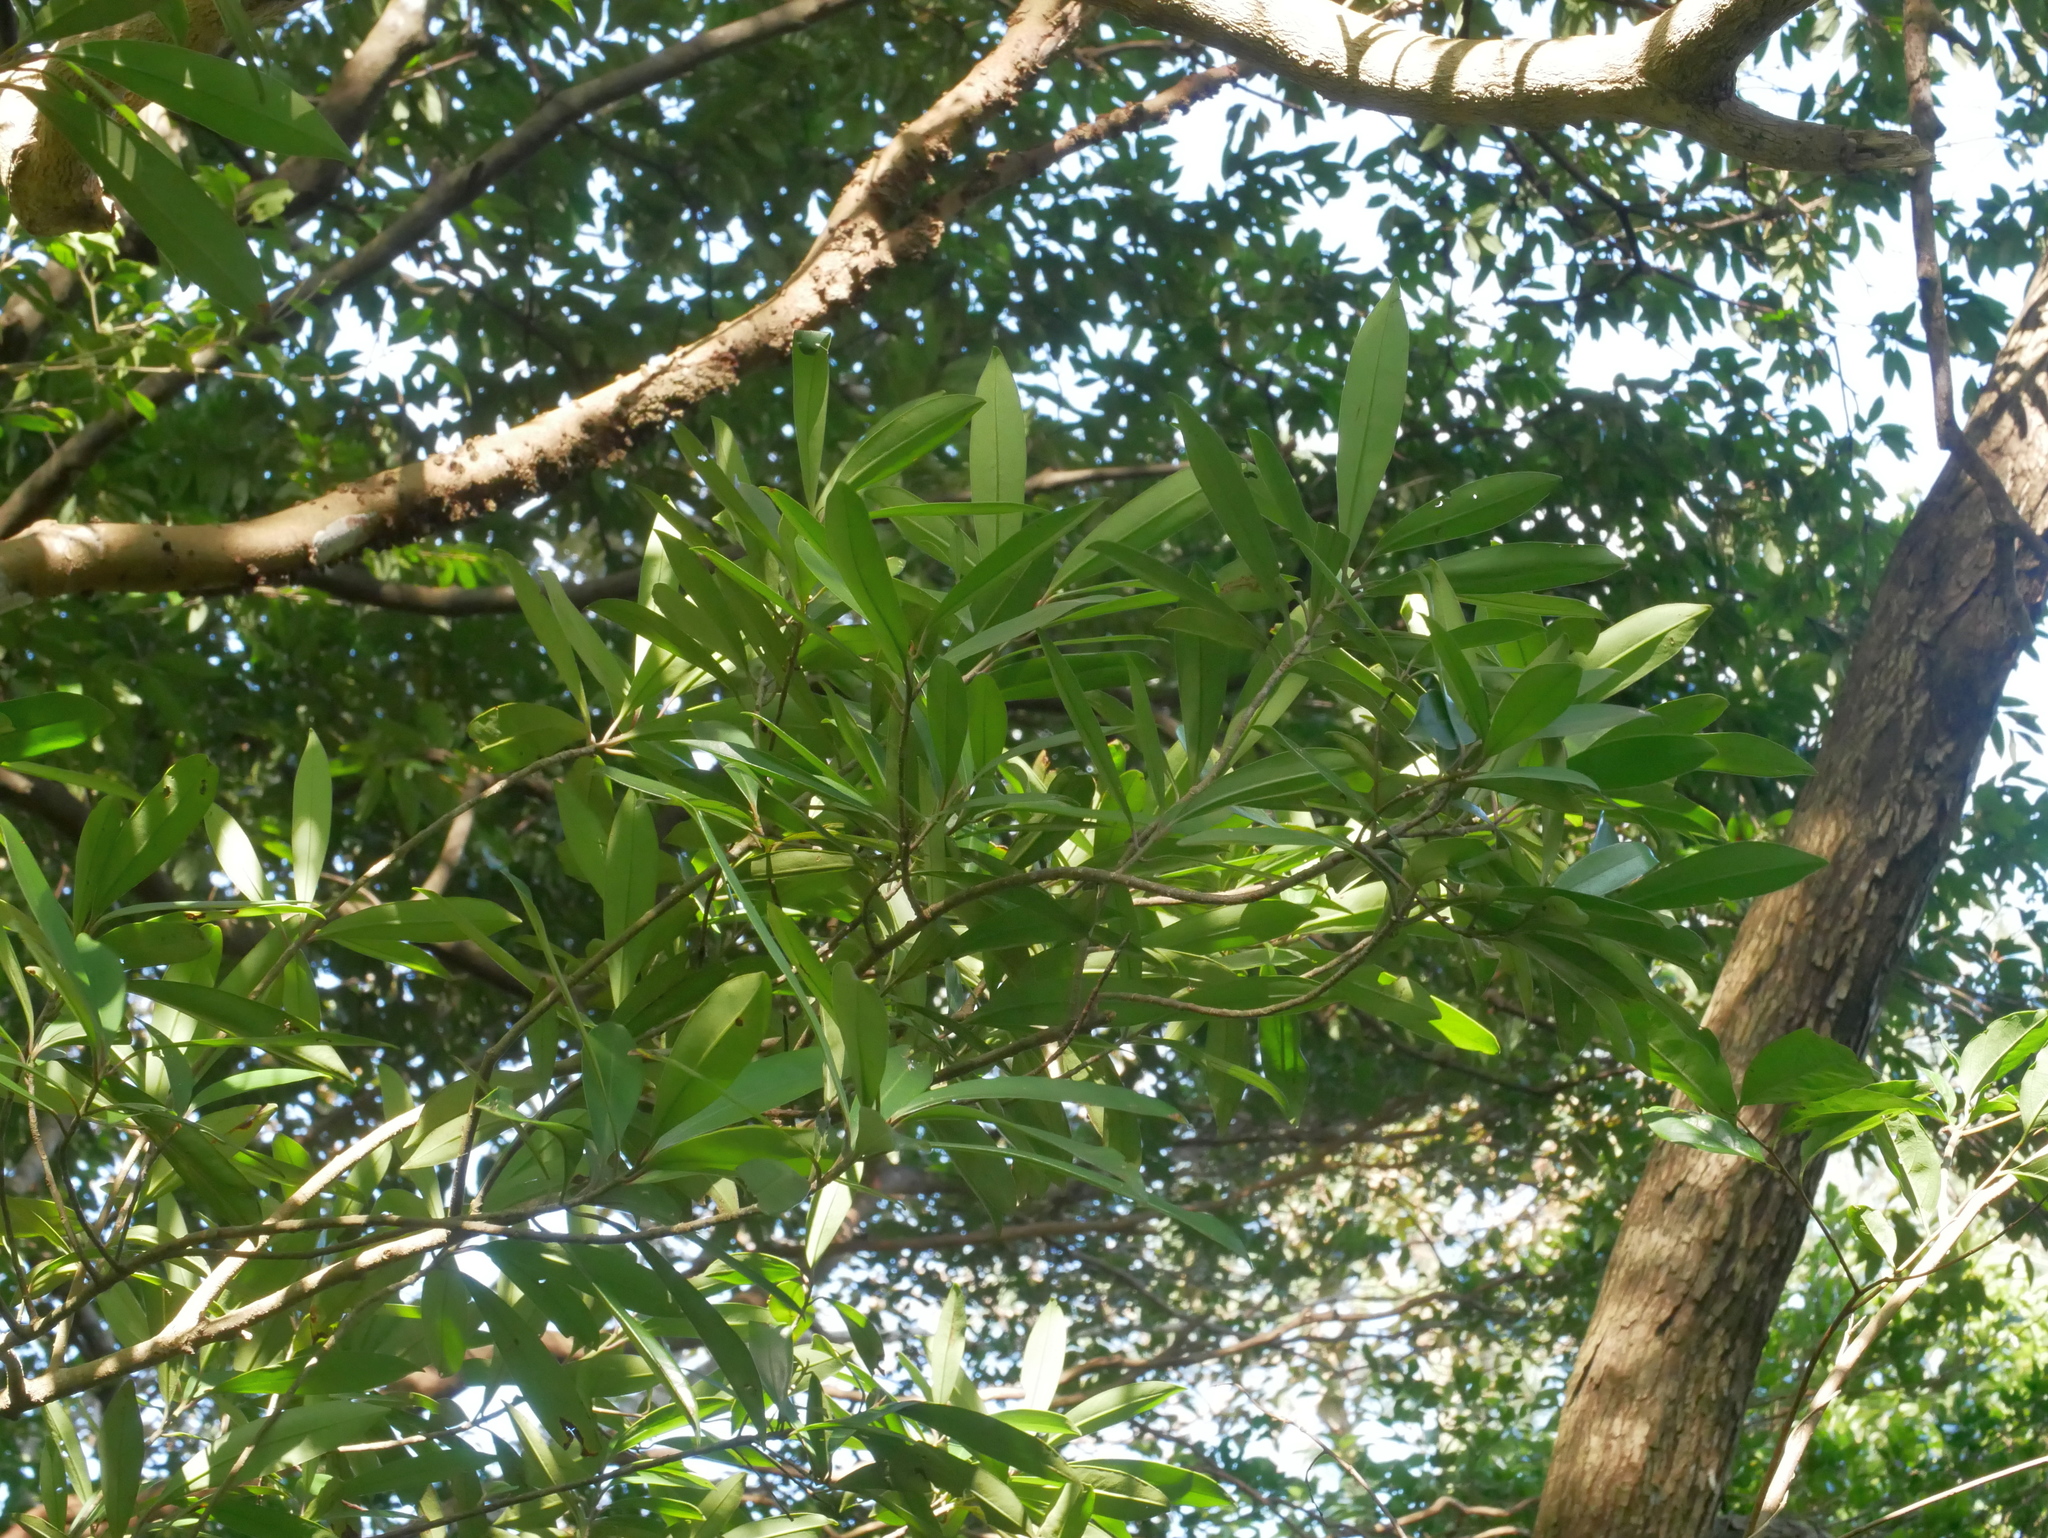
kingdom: Plantae
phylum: Tracheophyta
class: Magnoliopsida
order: Ericales
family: Primulaceae
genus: Myrsine
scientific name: Myrsine seguinii
